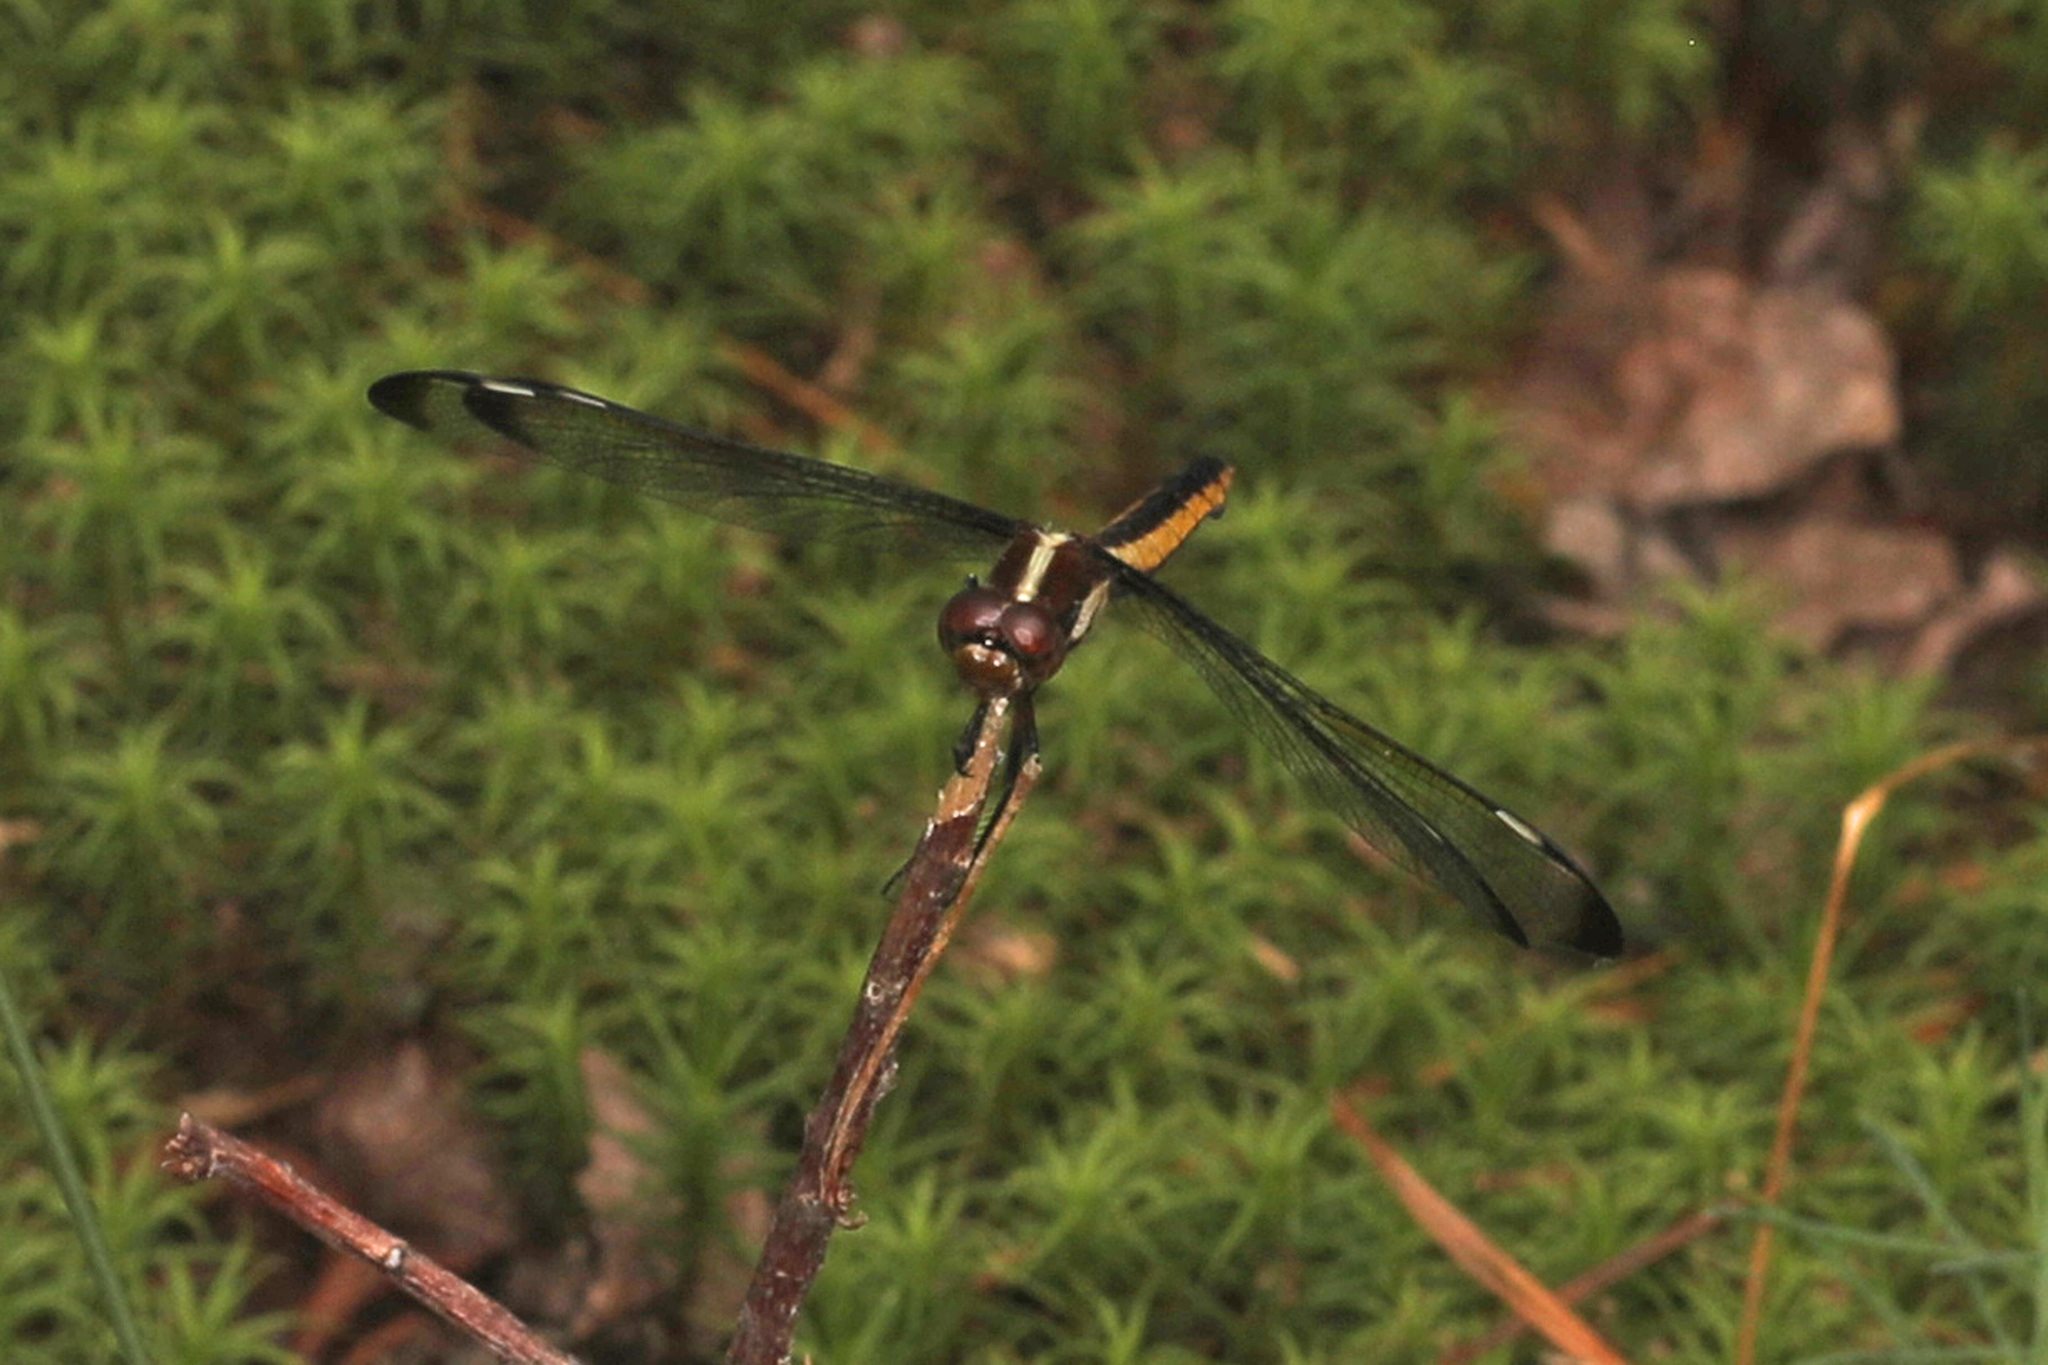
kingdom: Animalia
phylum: Arthropoda
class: Insecta
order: Odonata
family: Libellulidae
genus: Libellula
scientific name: Libellula cyanea
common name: Spangled skimmer
